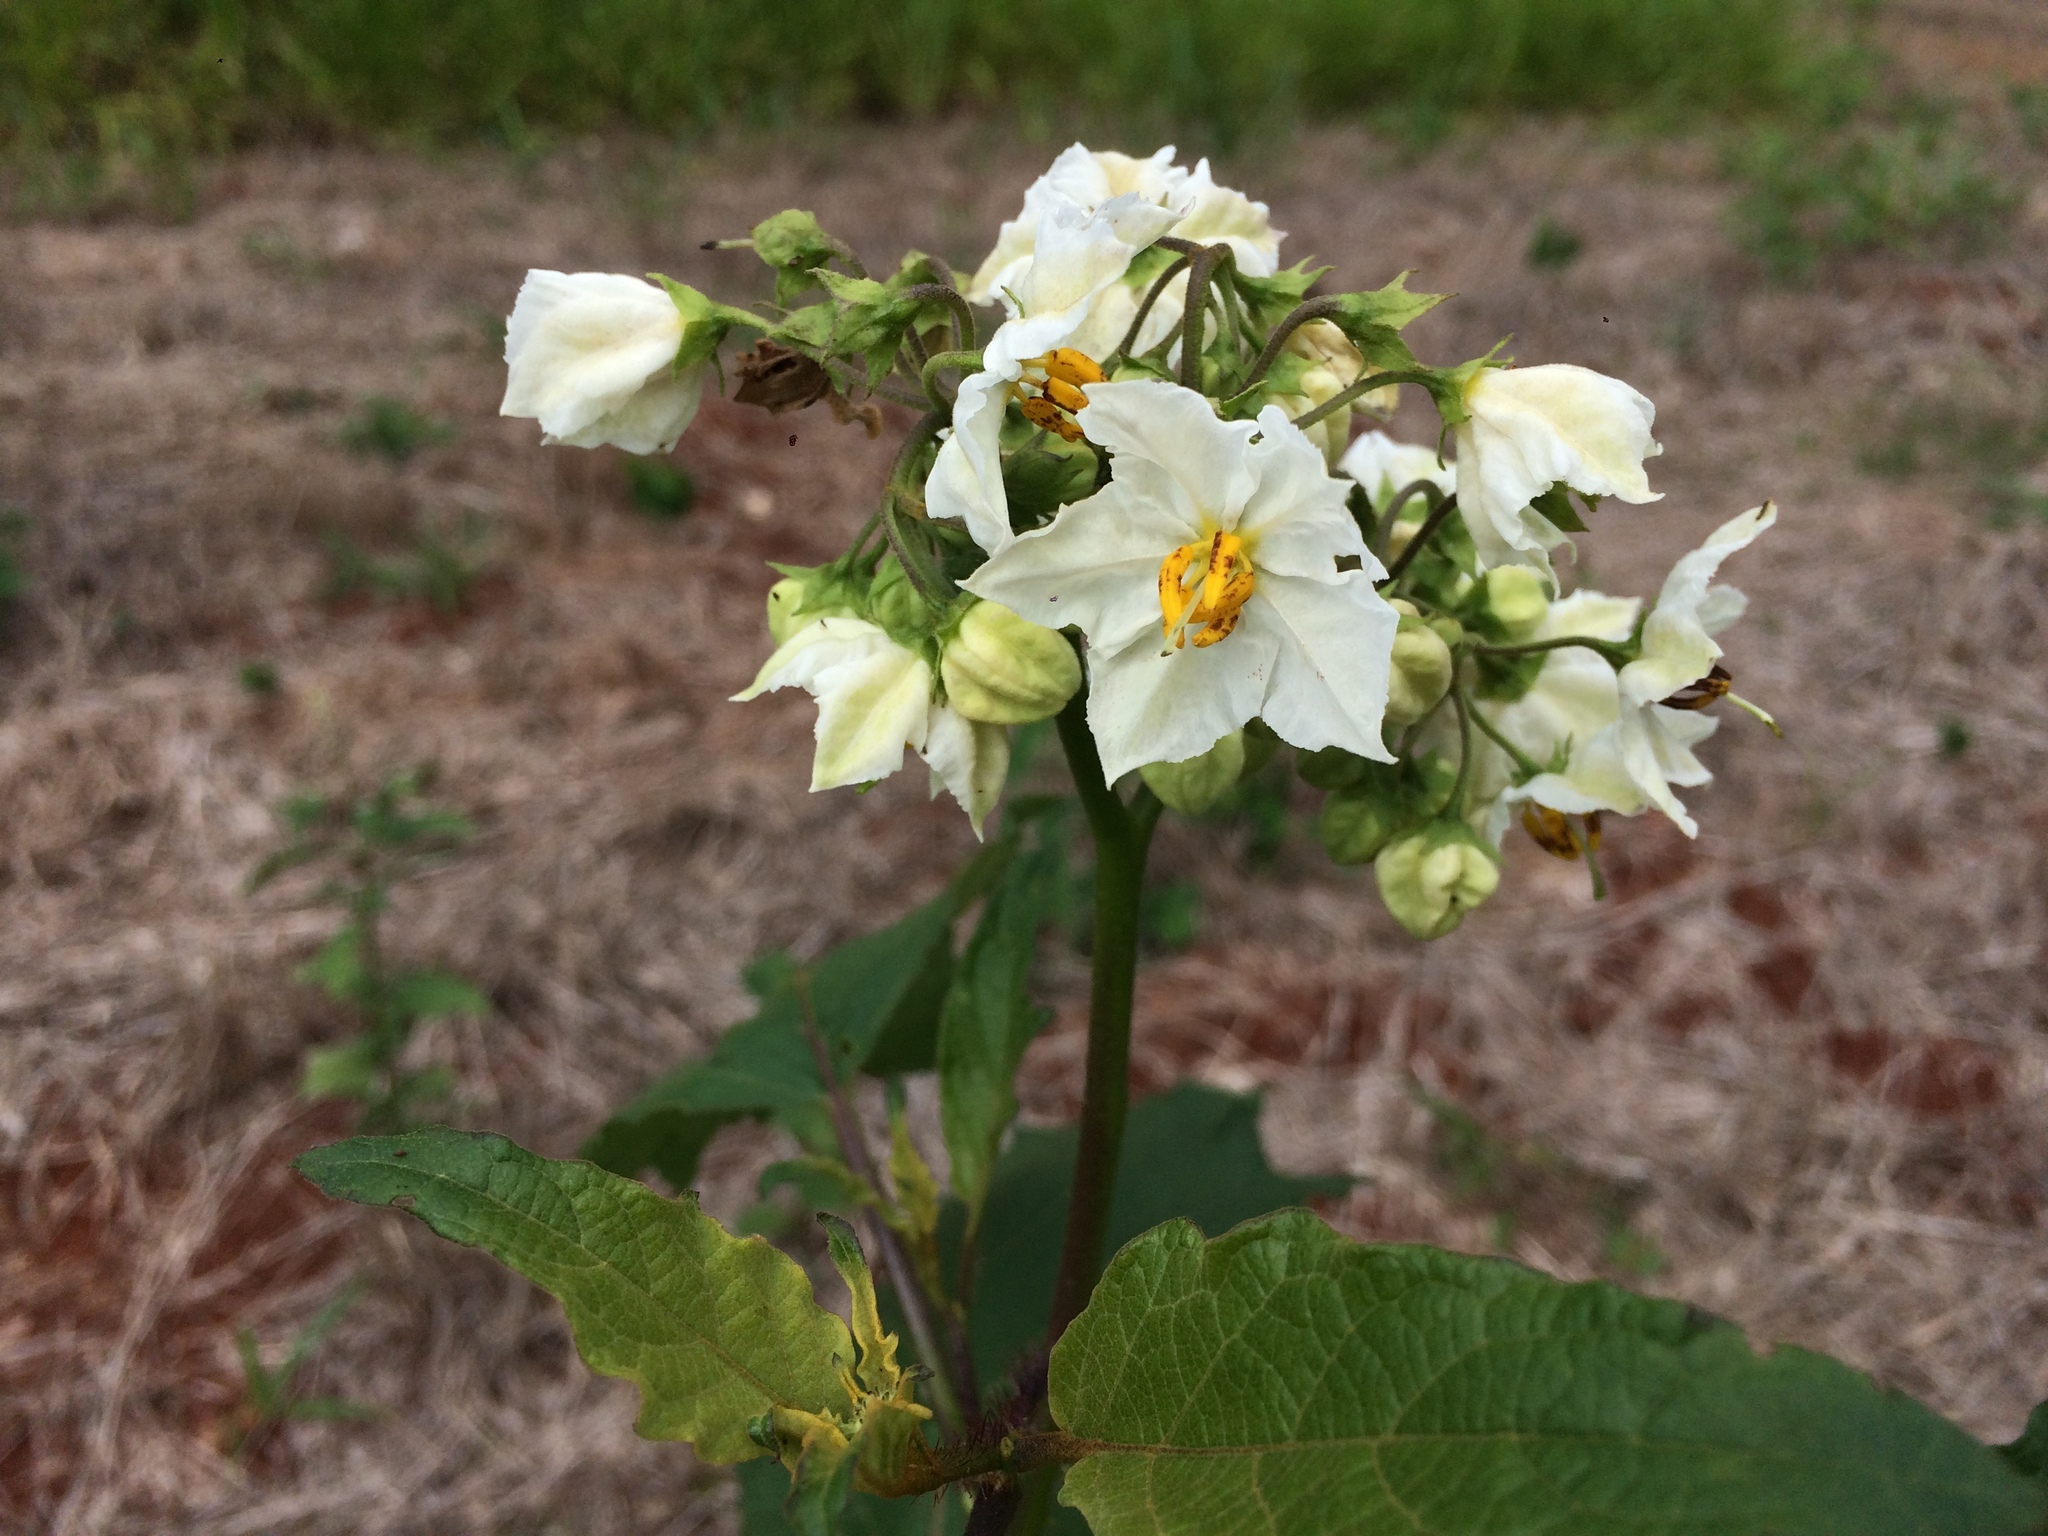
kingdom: Plantae
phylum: Tracheophyta
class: Magnoliopsida
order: Solanales
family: Solanaceae
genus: Solanum
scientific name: Solanum guaraniticum
